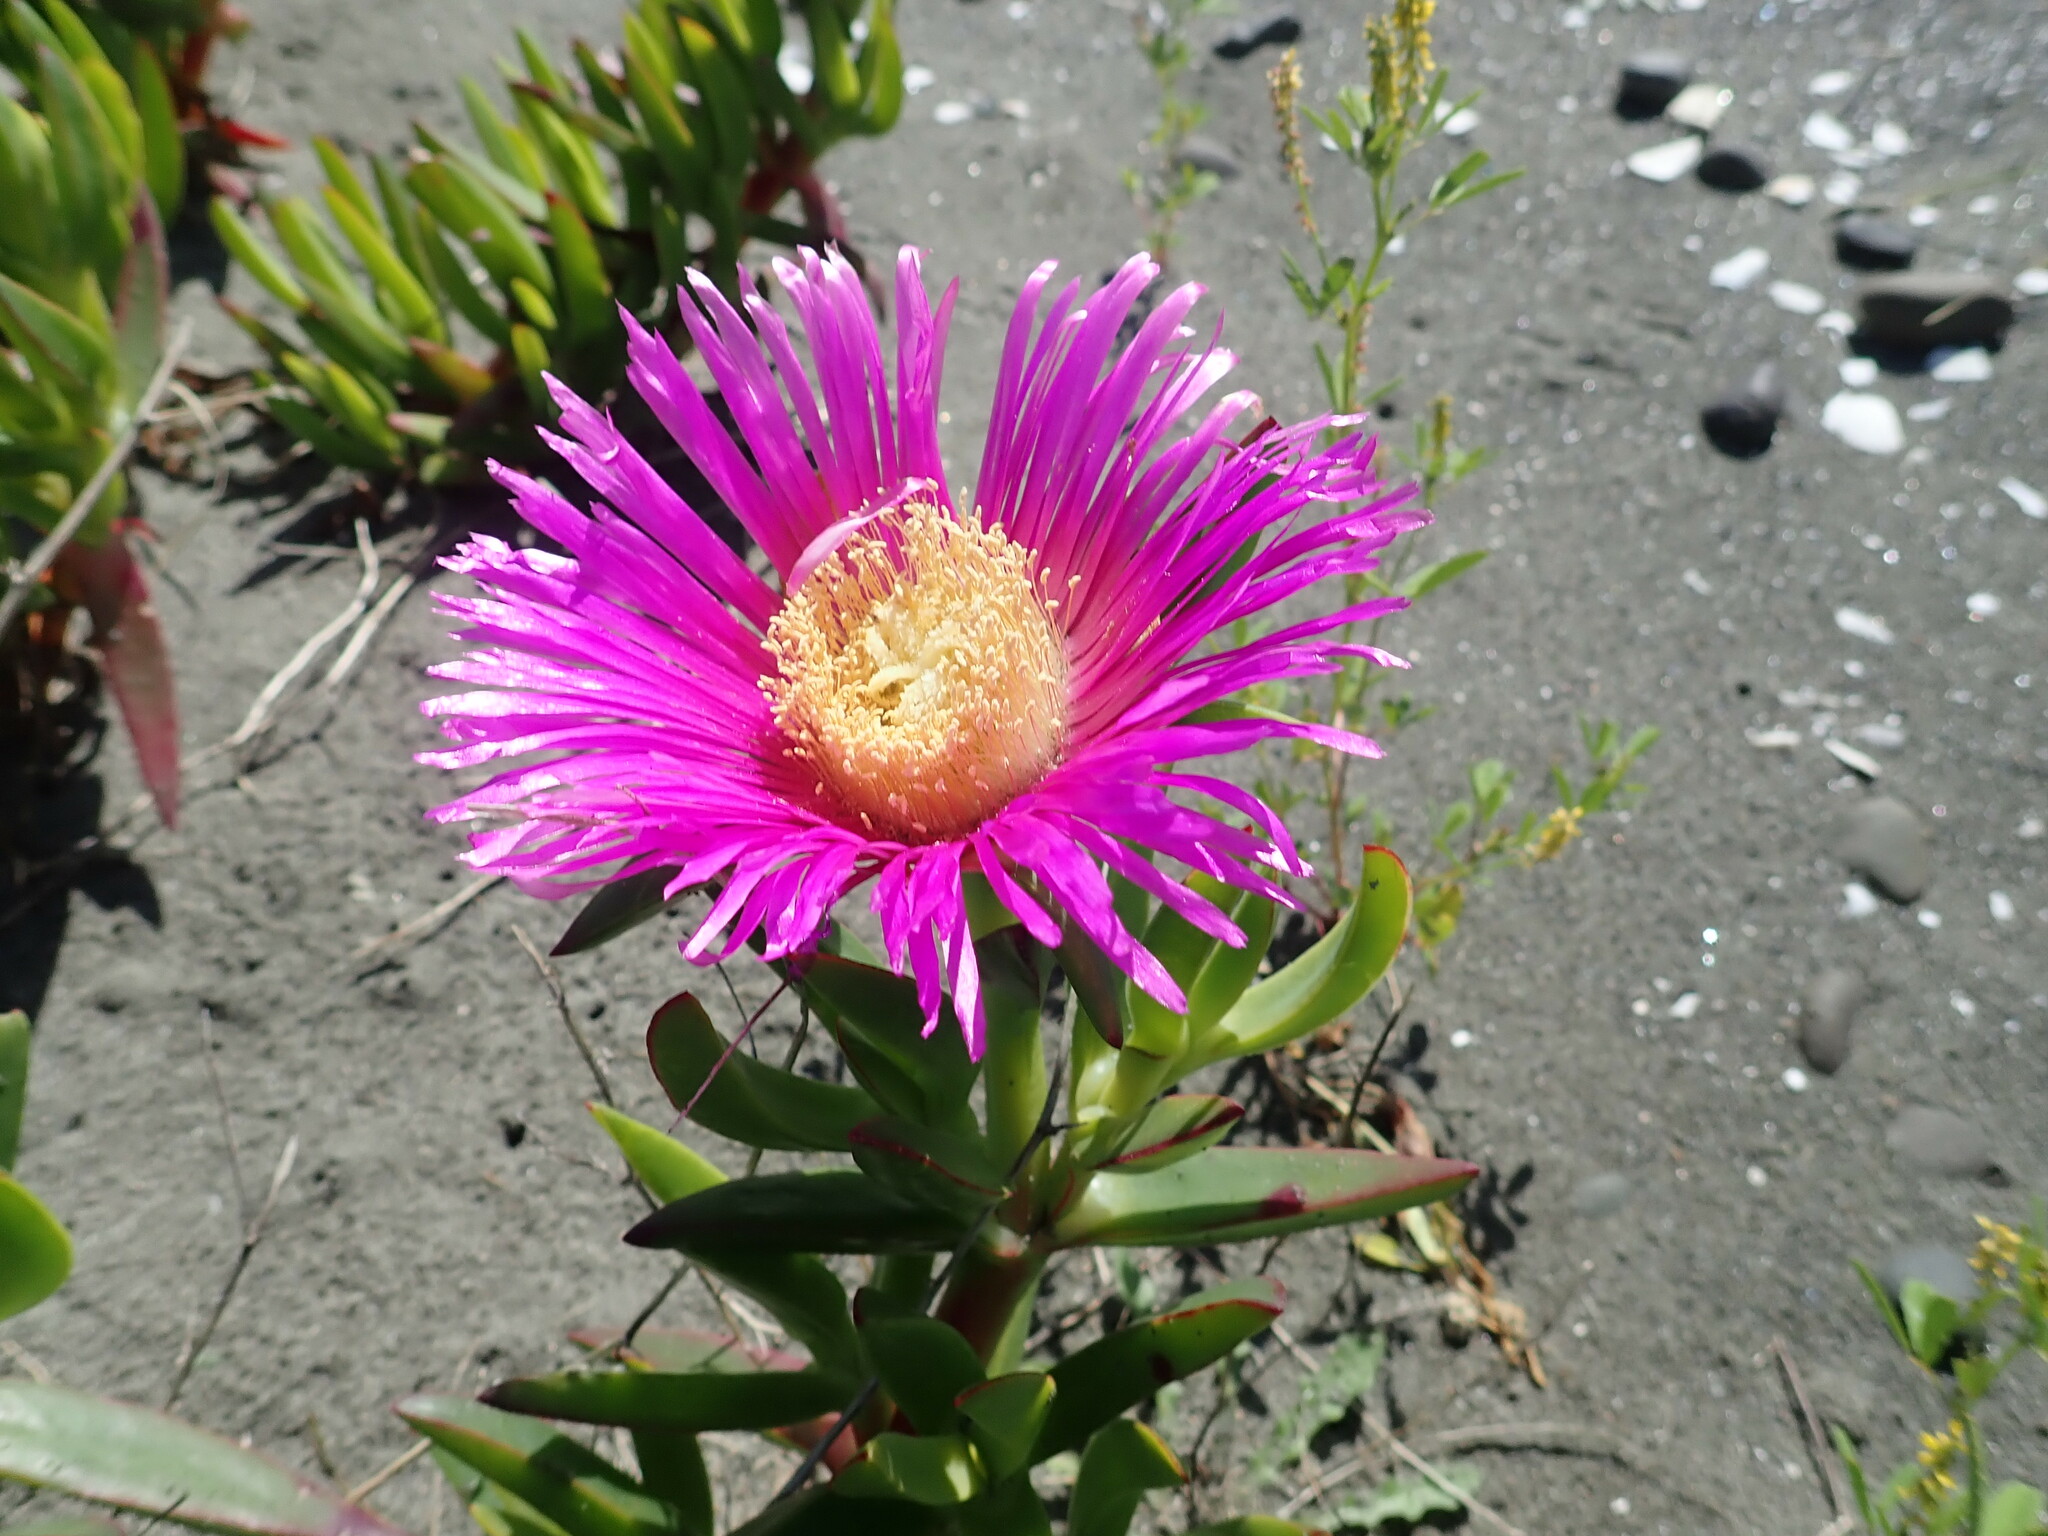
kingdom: Plantae
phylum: Tracheophyta
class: Magnoliopsida
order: Caryophyllales
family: Aizoaceae
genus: Carpobrotus
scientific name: Carpobrotus chilensis
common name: Sea fig
